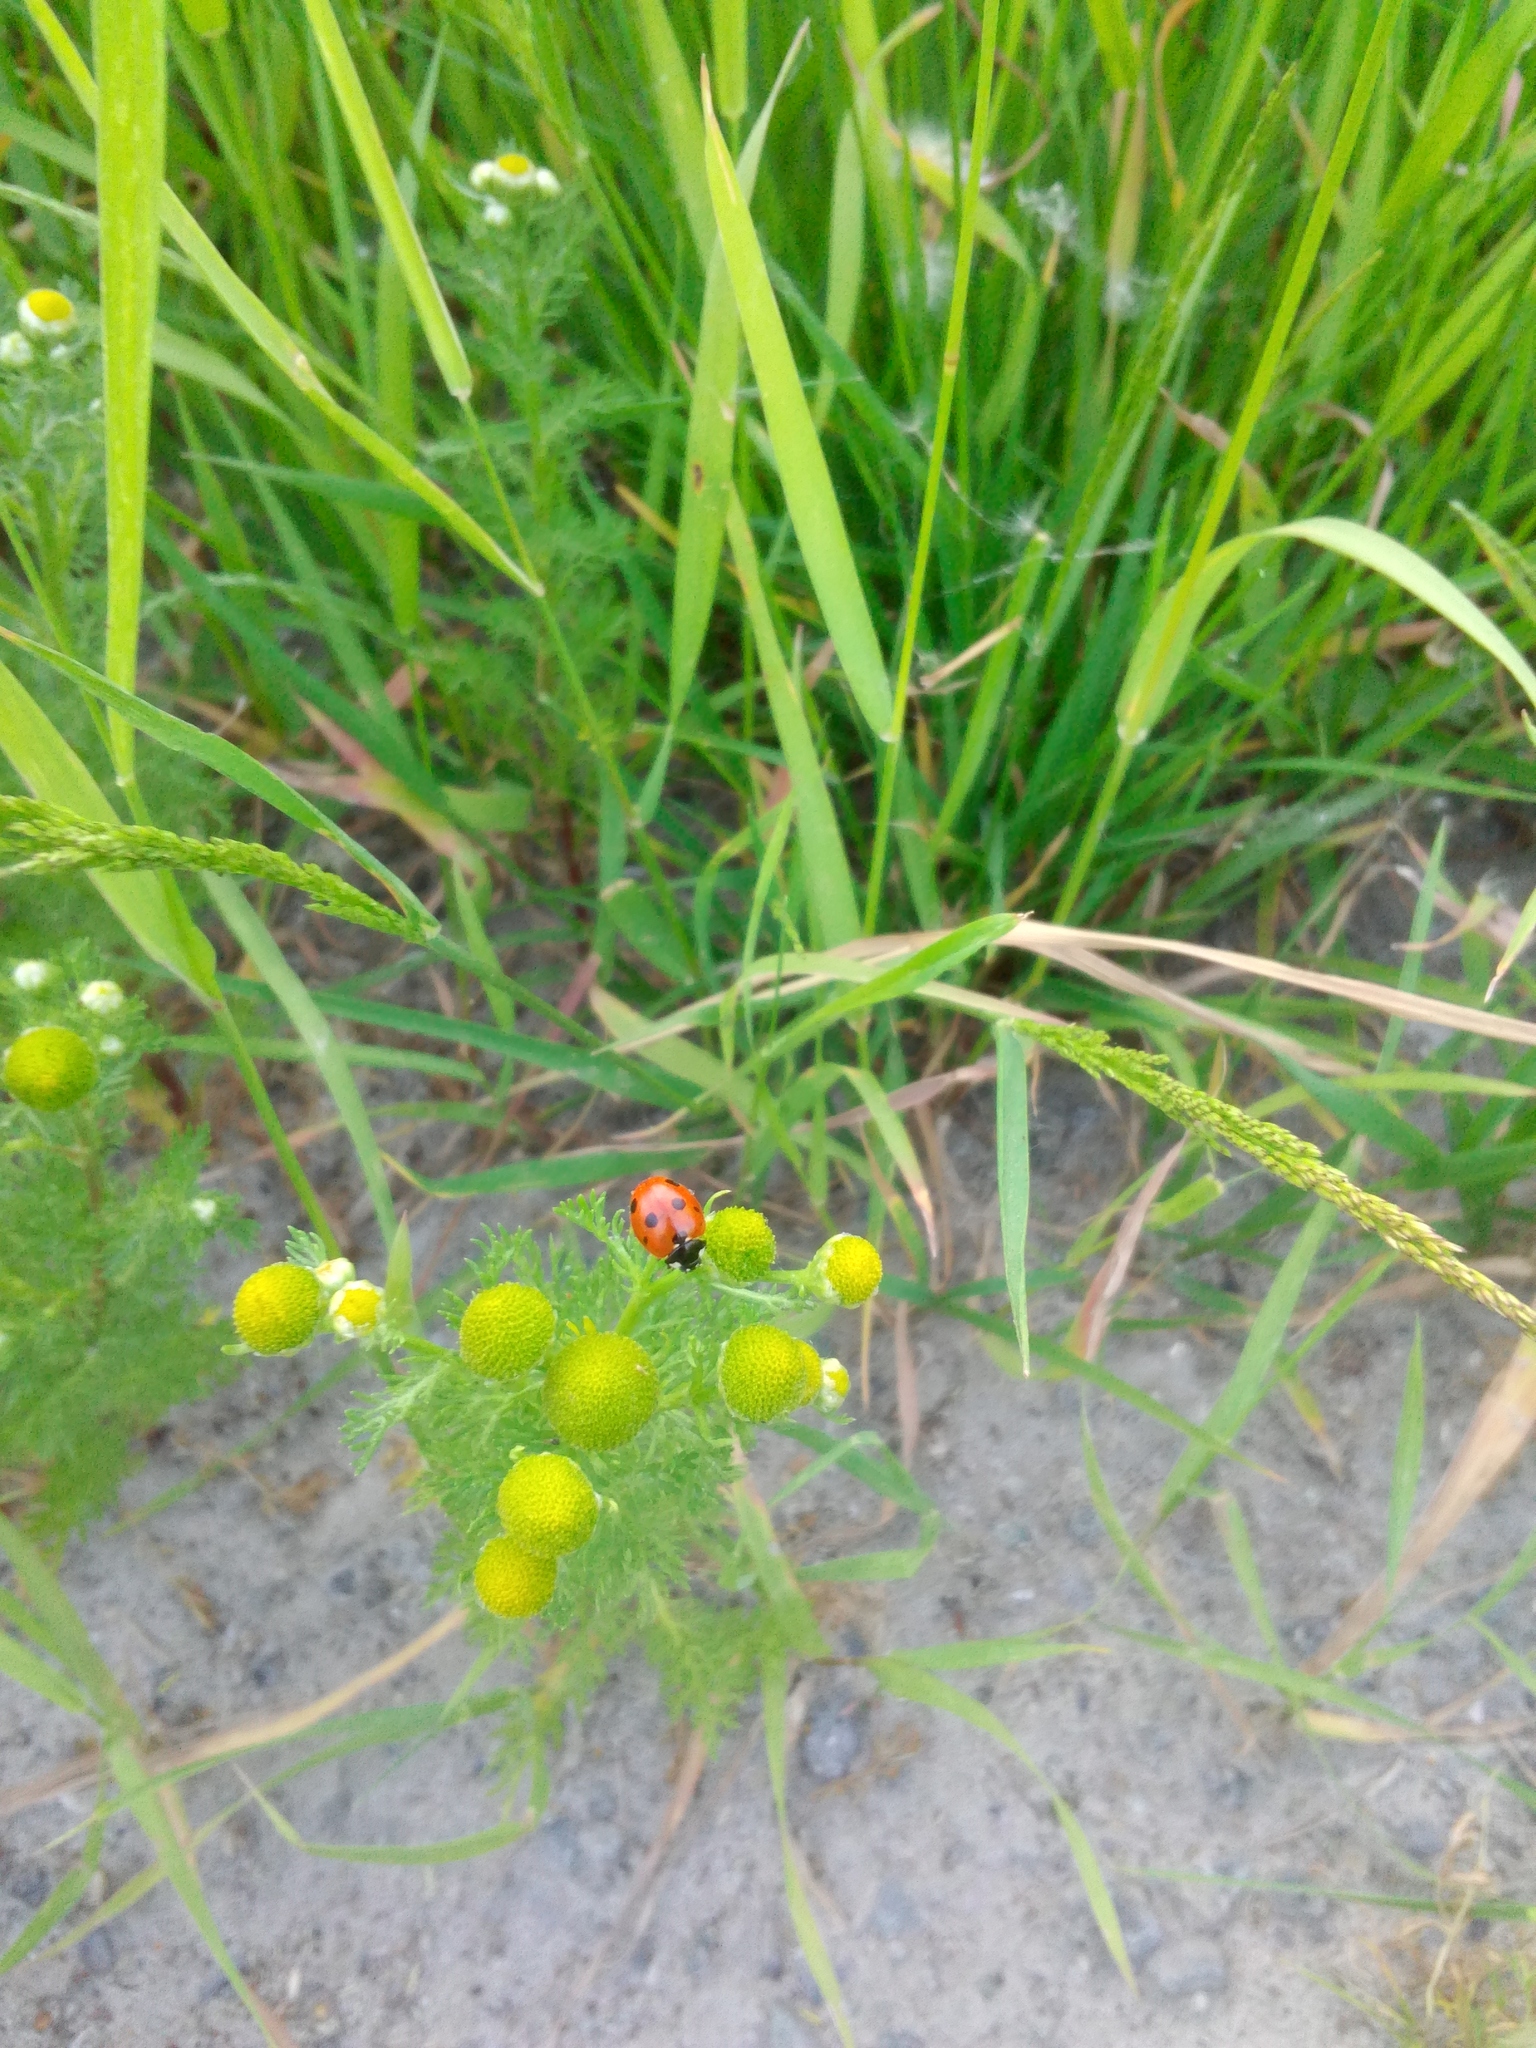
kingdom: Animalia
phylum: Arthropoda
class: Insecta
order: Coleoptera
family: Coccinellidae
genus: Coccinella
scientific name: Coccinella septempunctata
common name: Sevenspotted lady beetle
